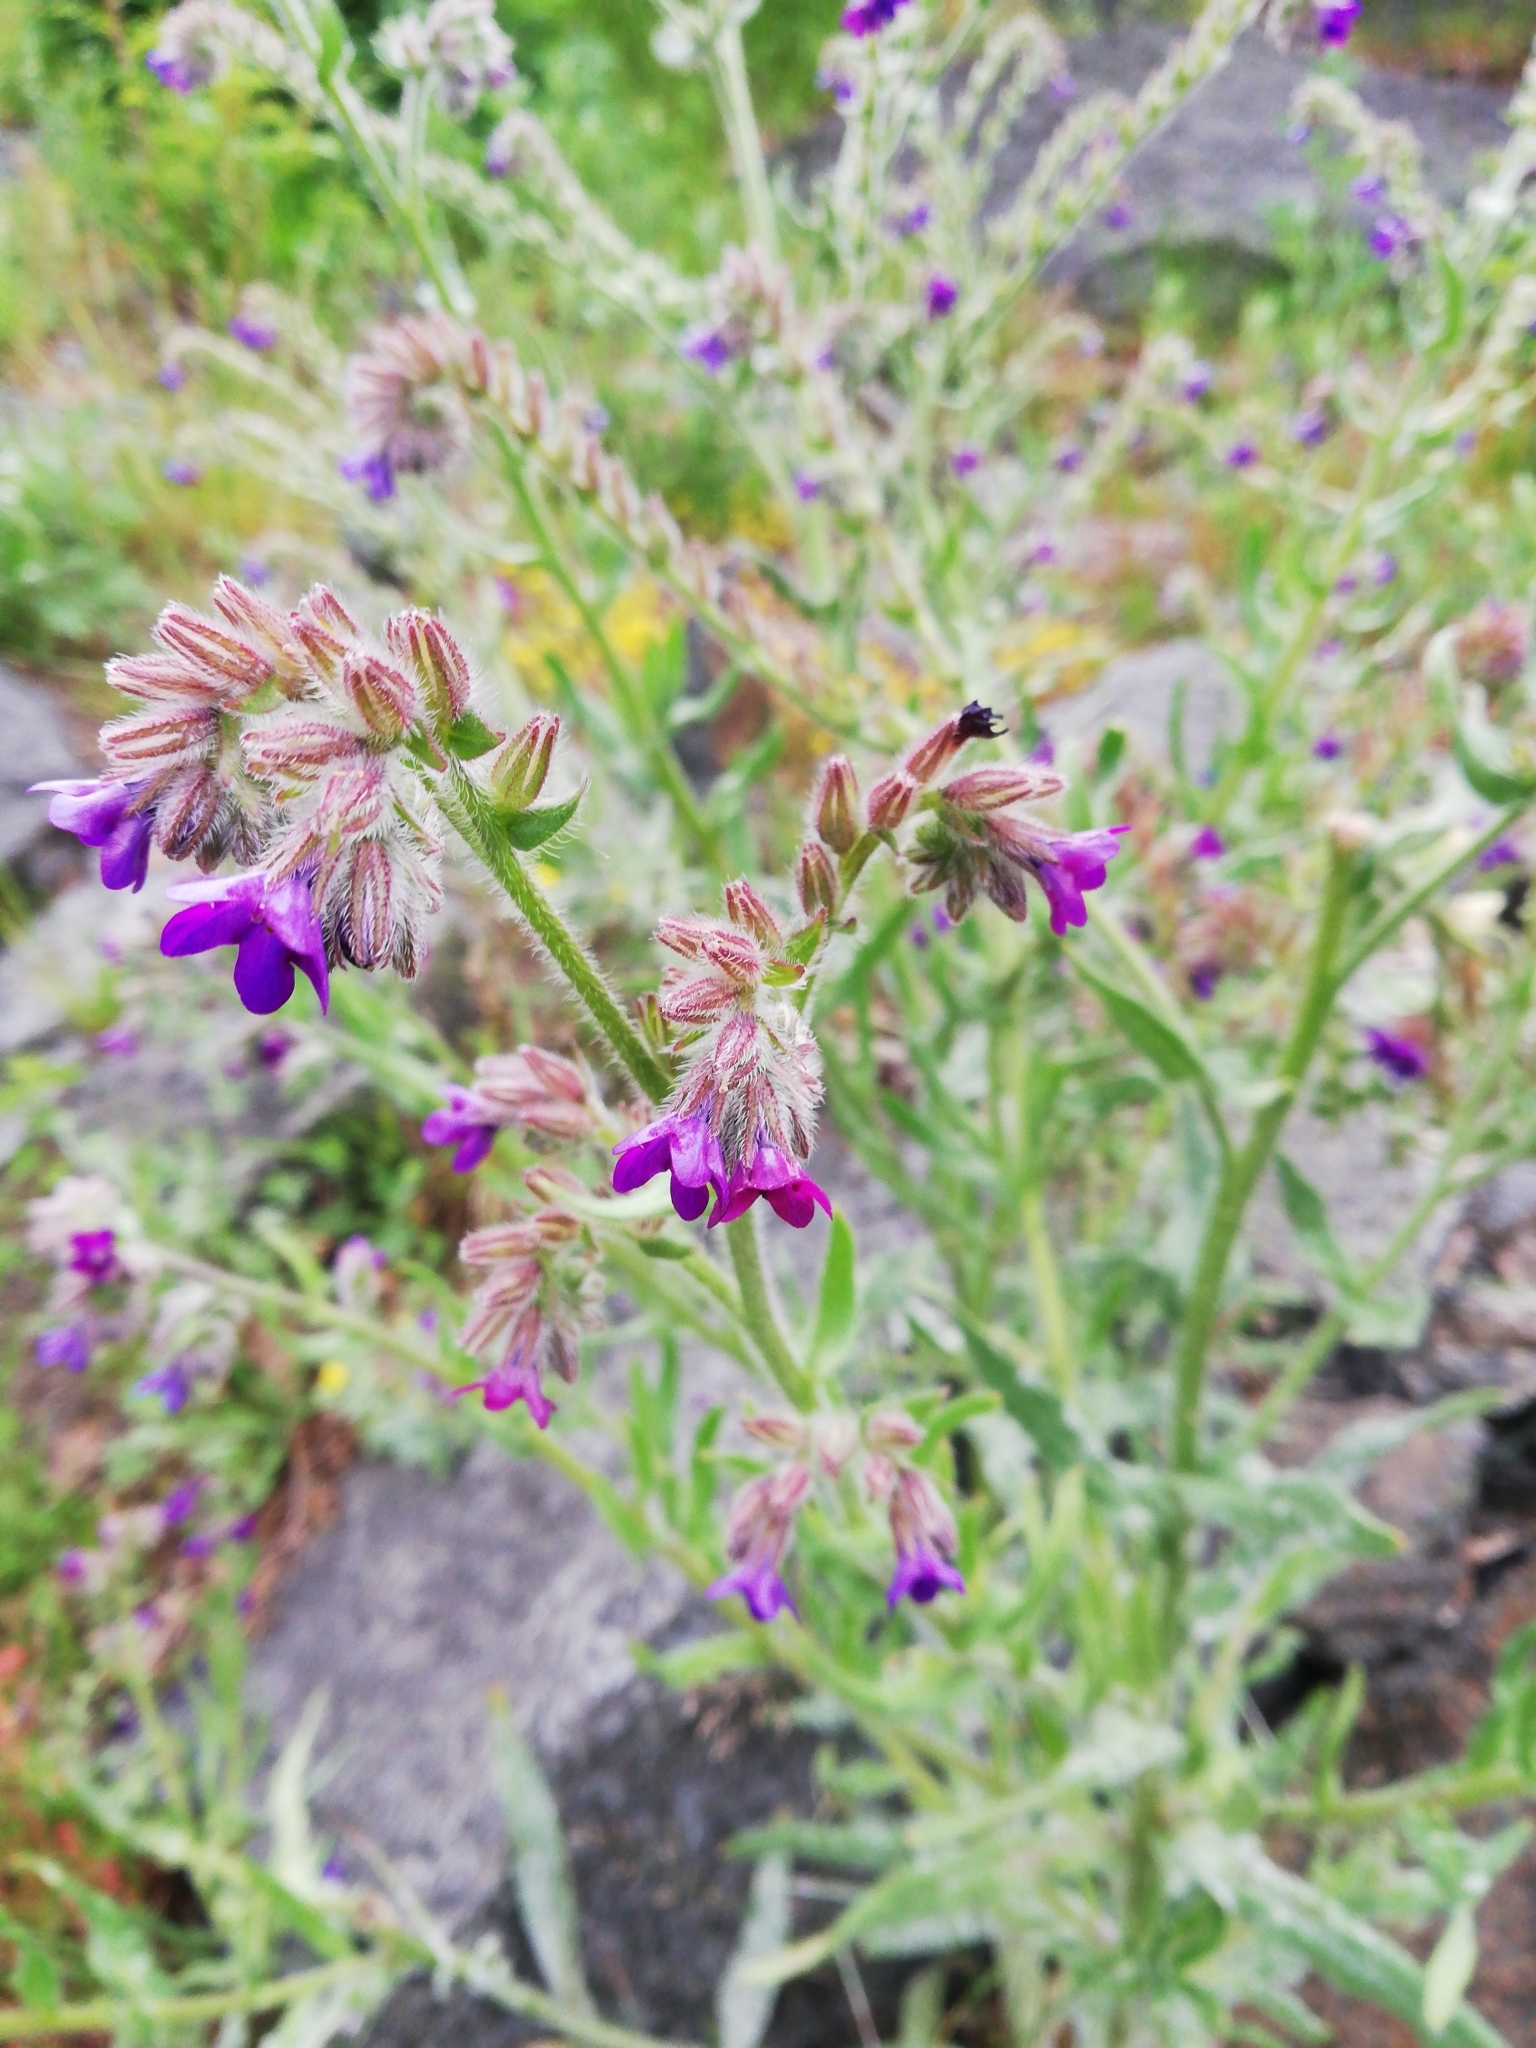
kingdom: Plantae
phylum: Tracheophyta
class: Magnoliopsida
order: Boraginales
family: Boraginaceae
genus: Anchusa
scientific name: Anchusa officinalis
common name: Alkanet
